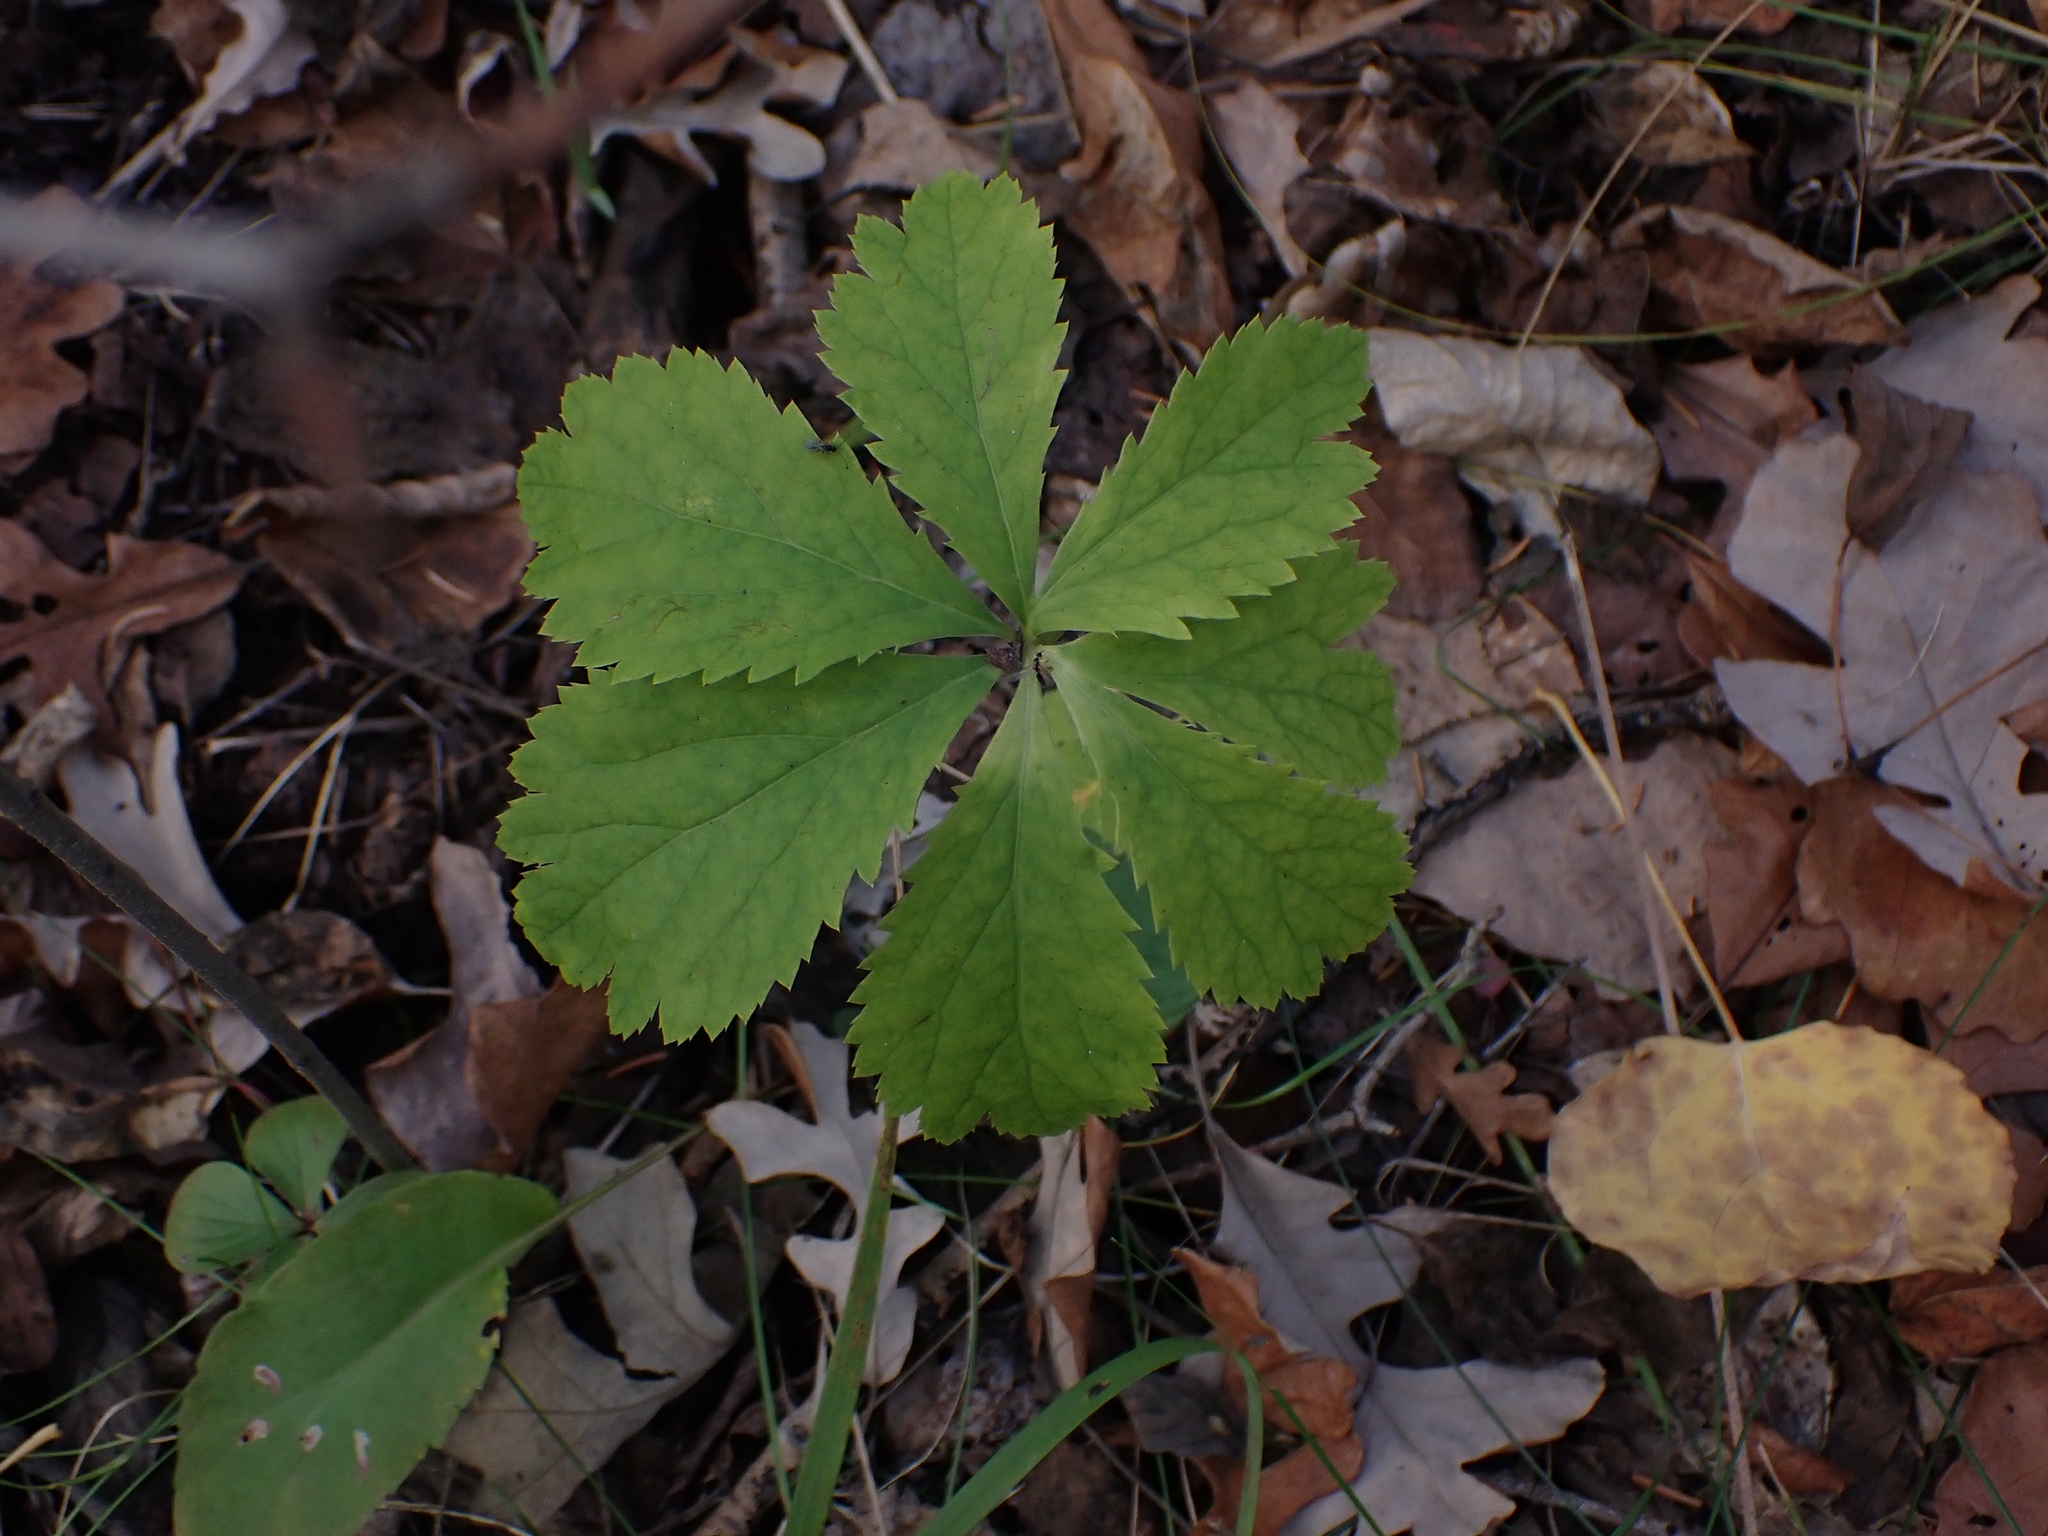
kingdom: Plantae
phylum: Tracheophyta
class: Magnoliopsida
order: Apiales
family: Apiaceae
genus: Sanicula
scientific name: Sanicula marilandica
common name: Black snakeroot
